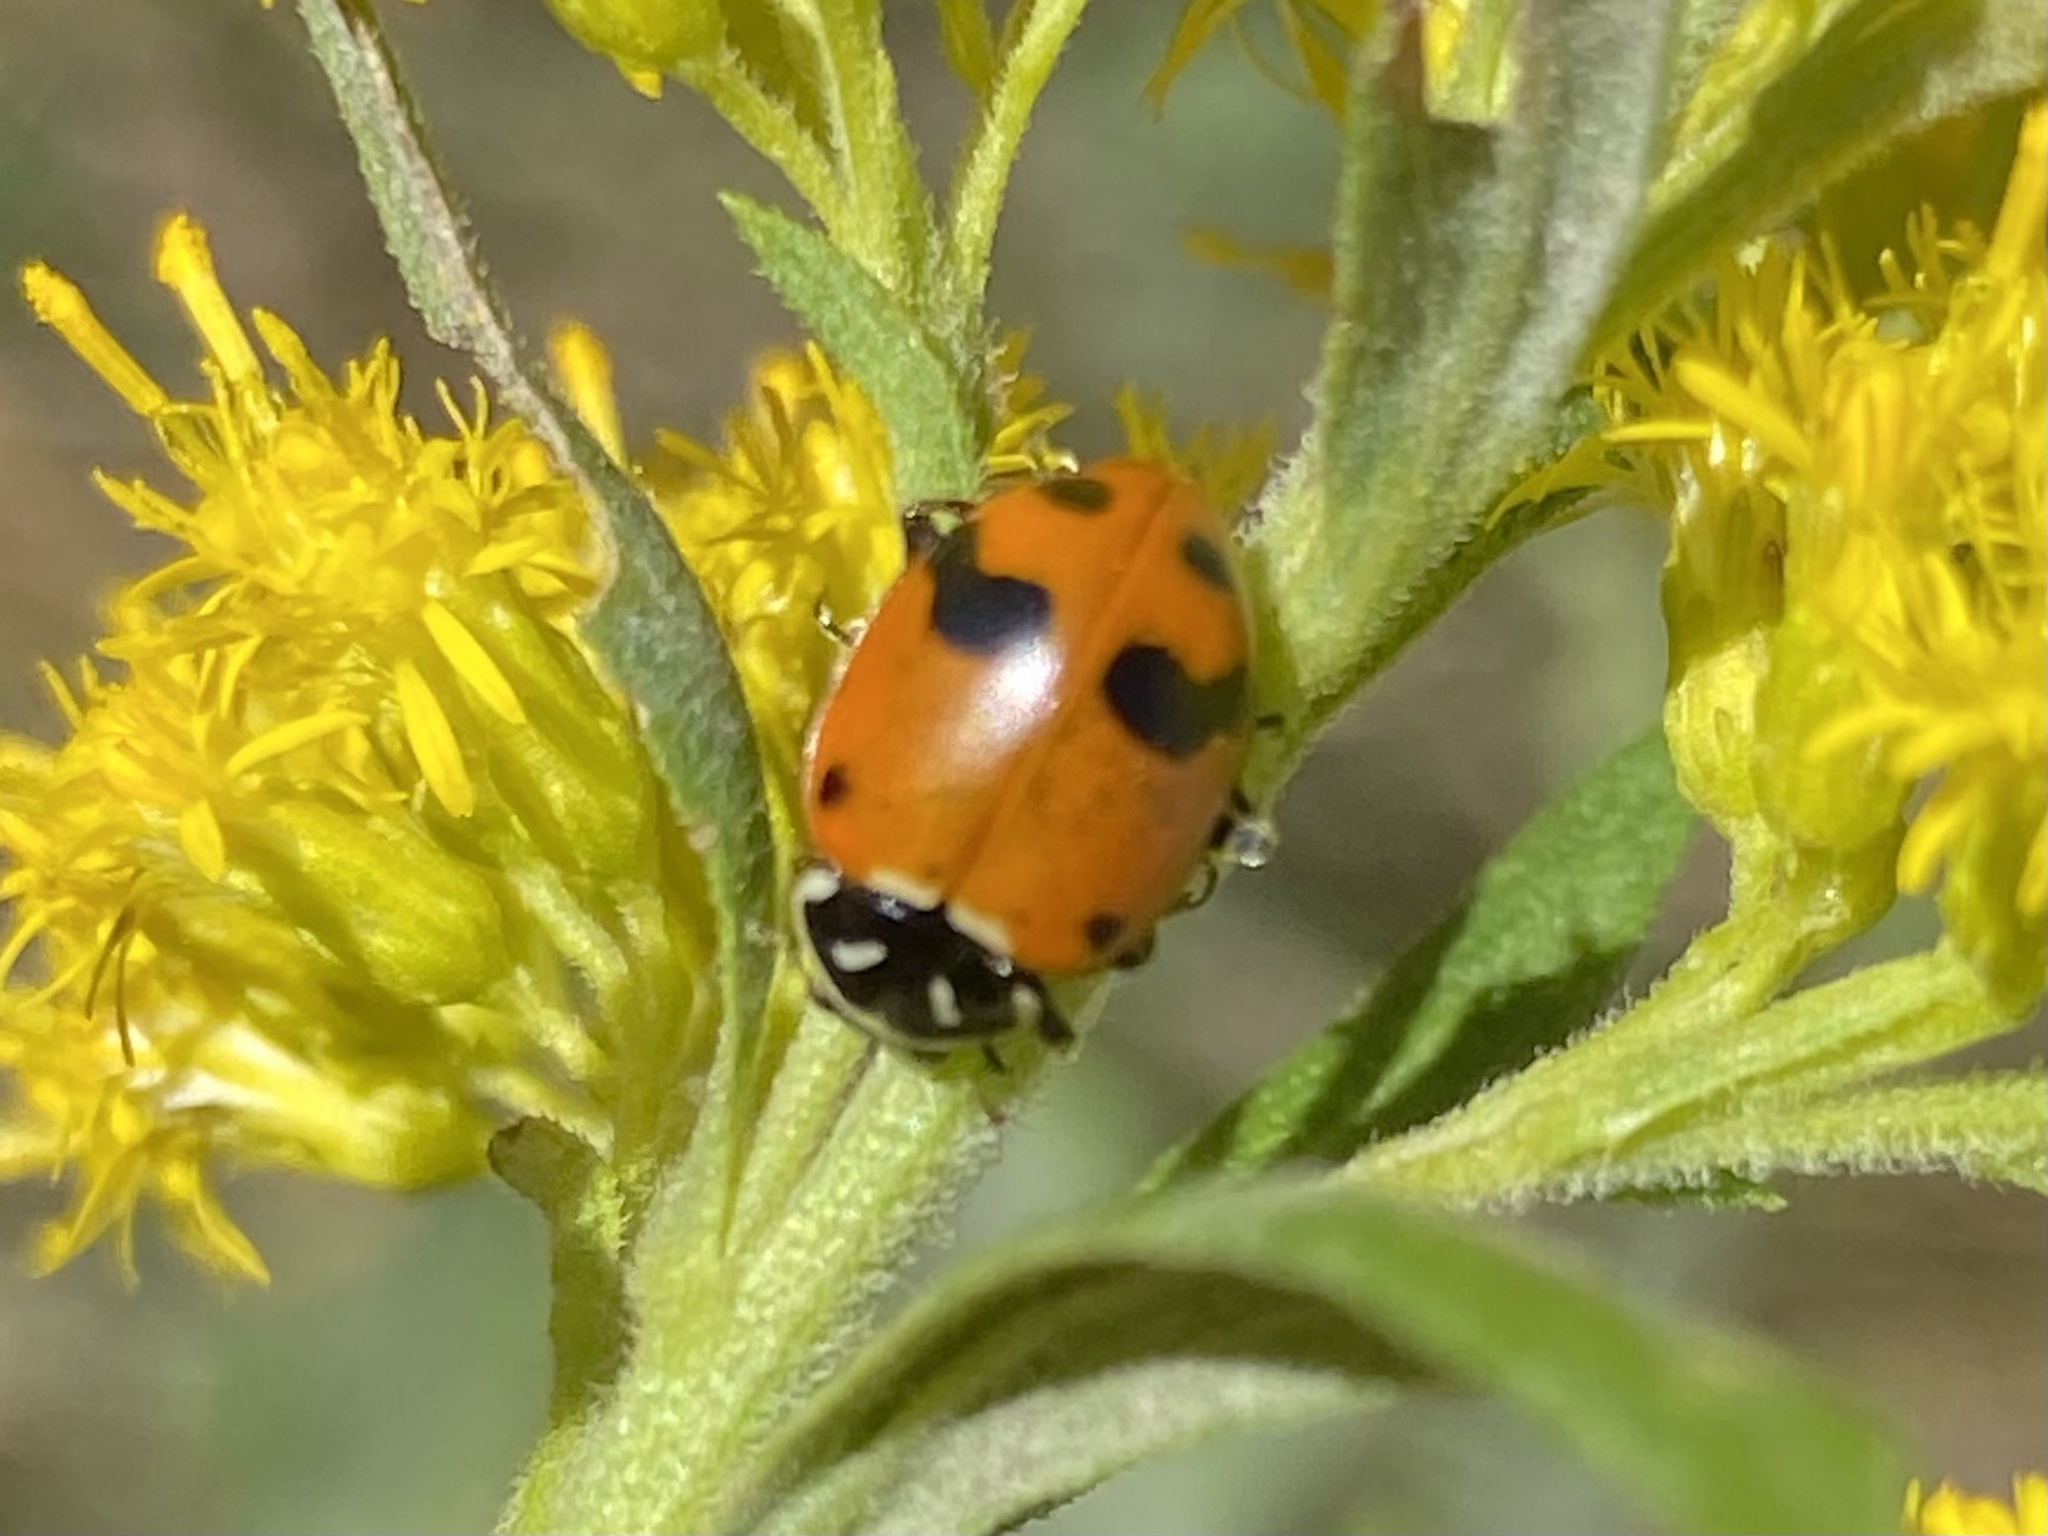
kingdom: Animalia
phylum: Arthropoda
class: Insecta
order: Coleoptera
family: Coccinellidae
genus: Hippodamia
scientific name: Hippodamia glacialis
